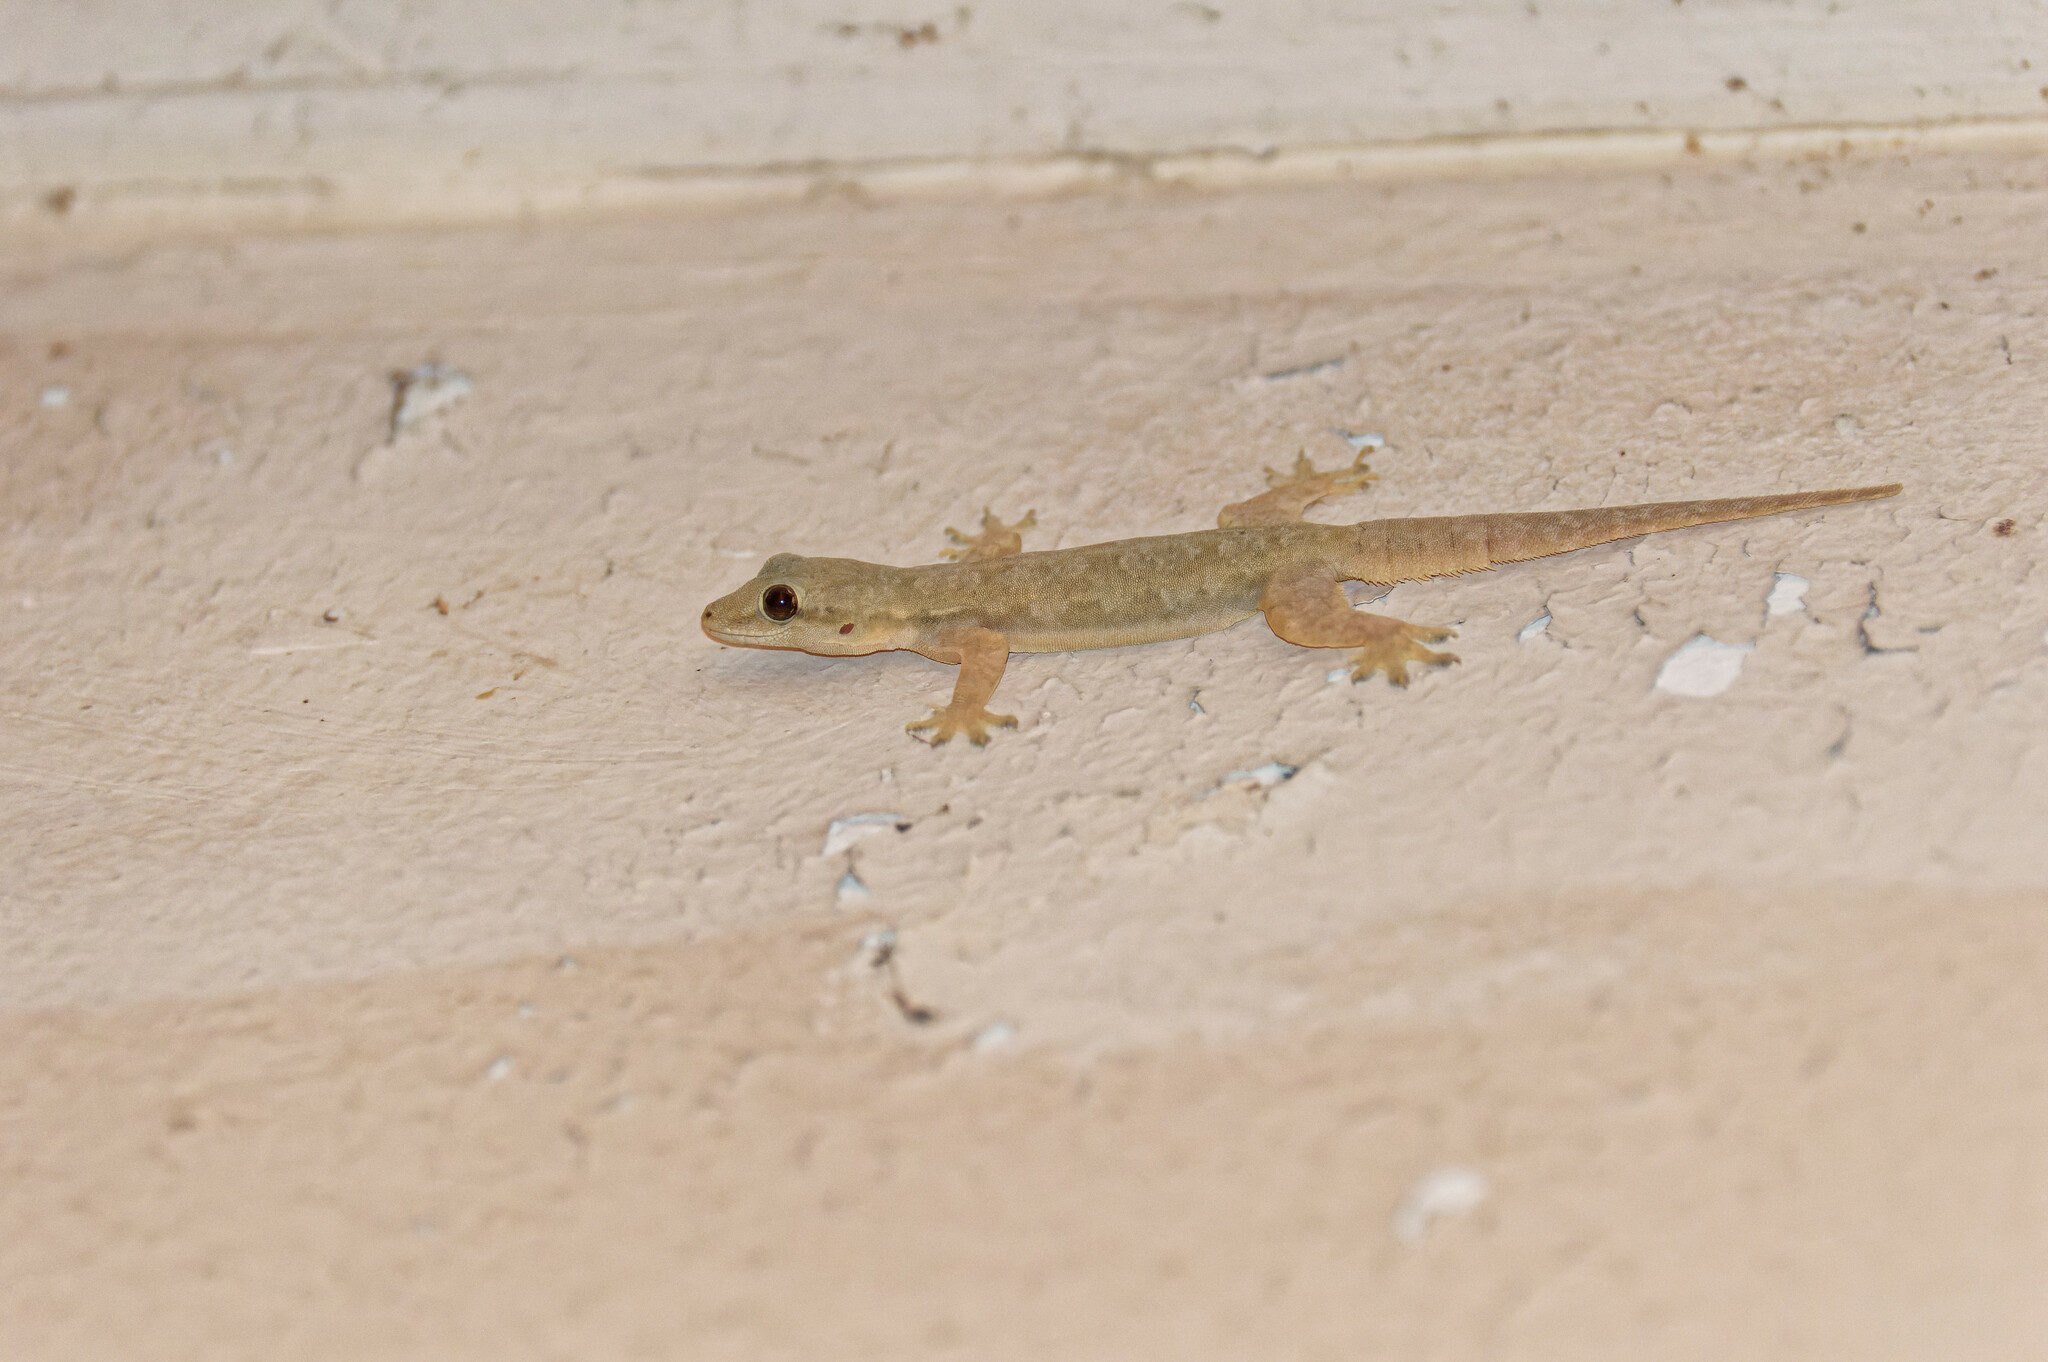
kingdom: Animalia
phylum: Chordata
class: Squamata
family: Gekkonidae
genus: Hemidactylus
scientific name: Hemidactylus platyurus
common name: Flat-tailed house gecko
